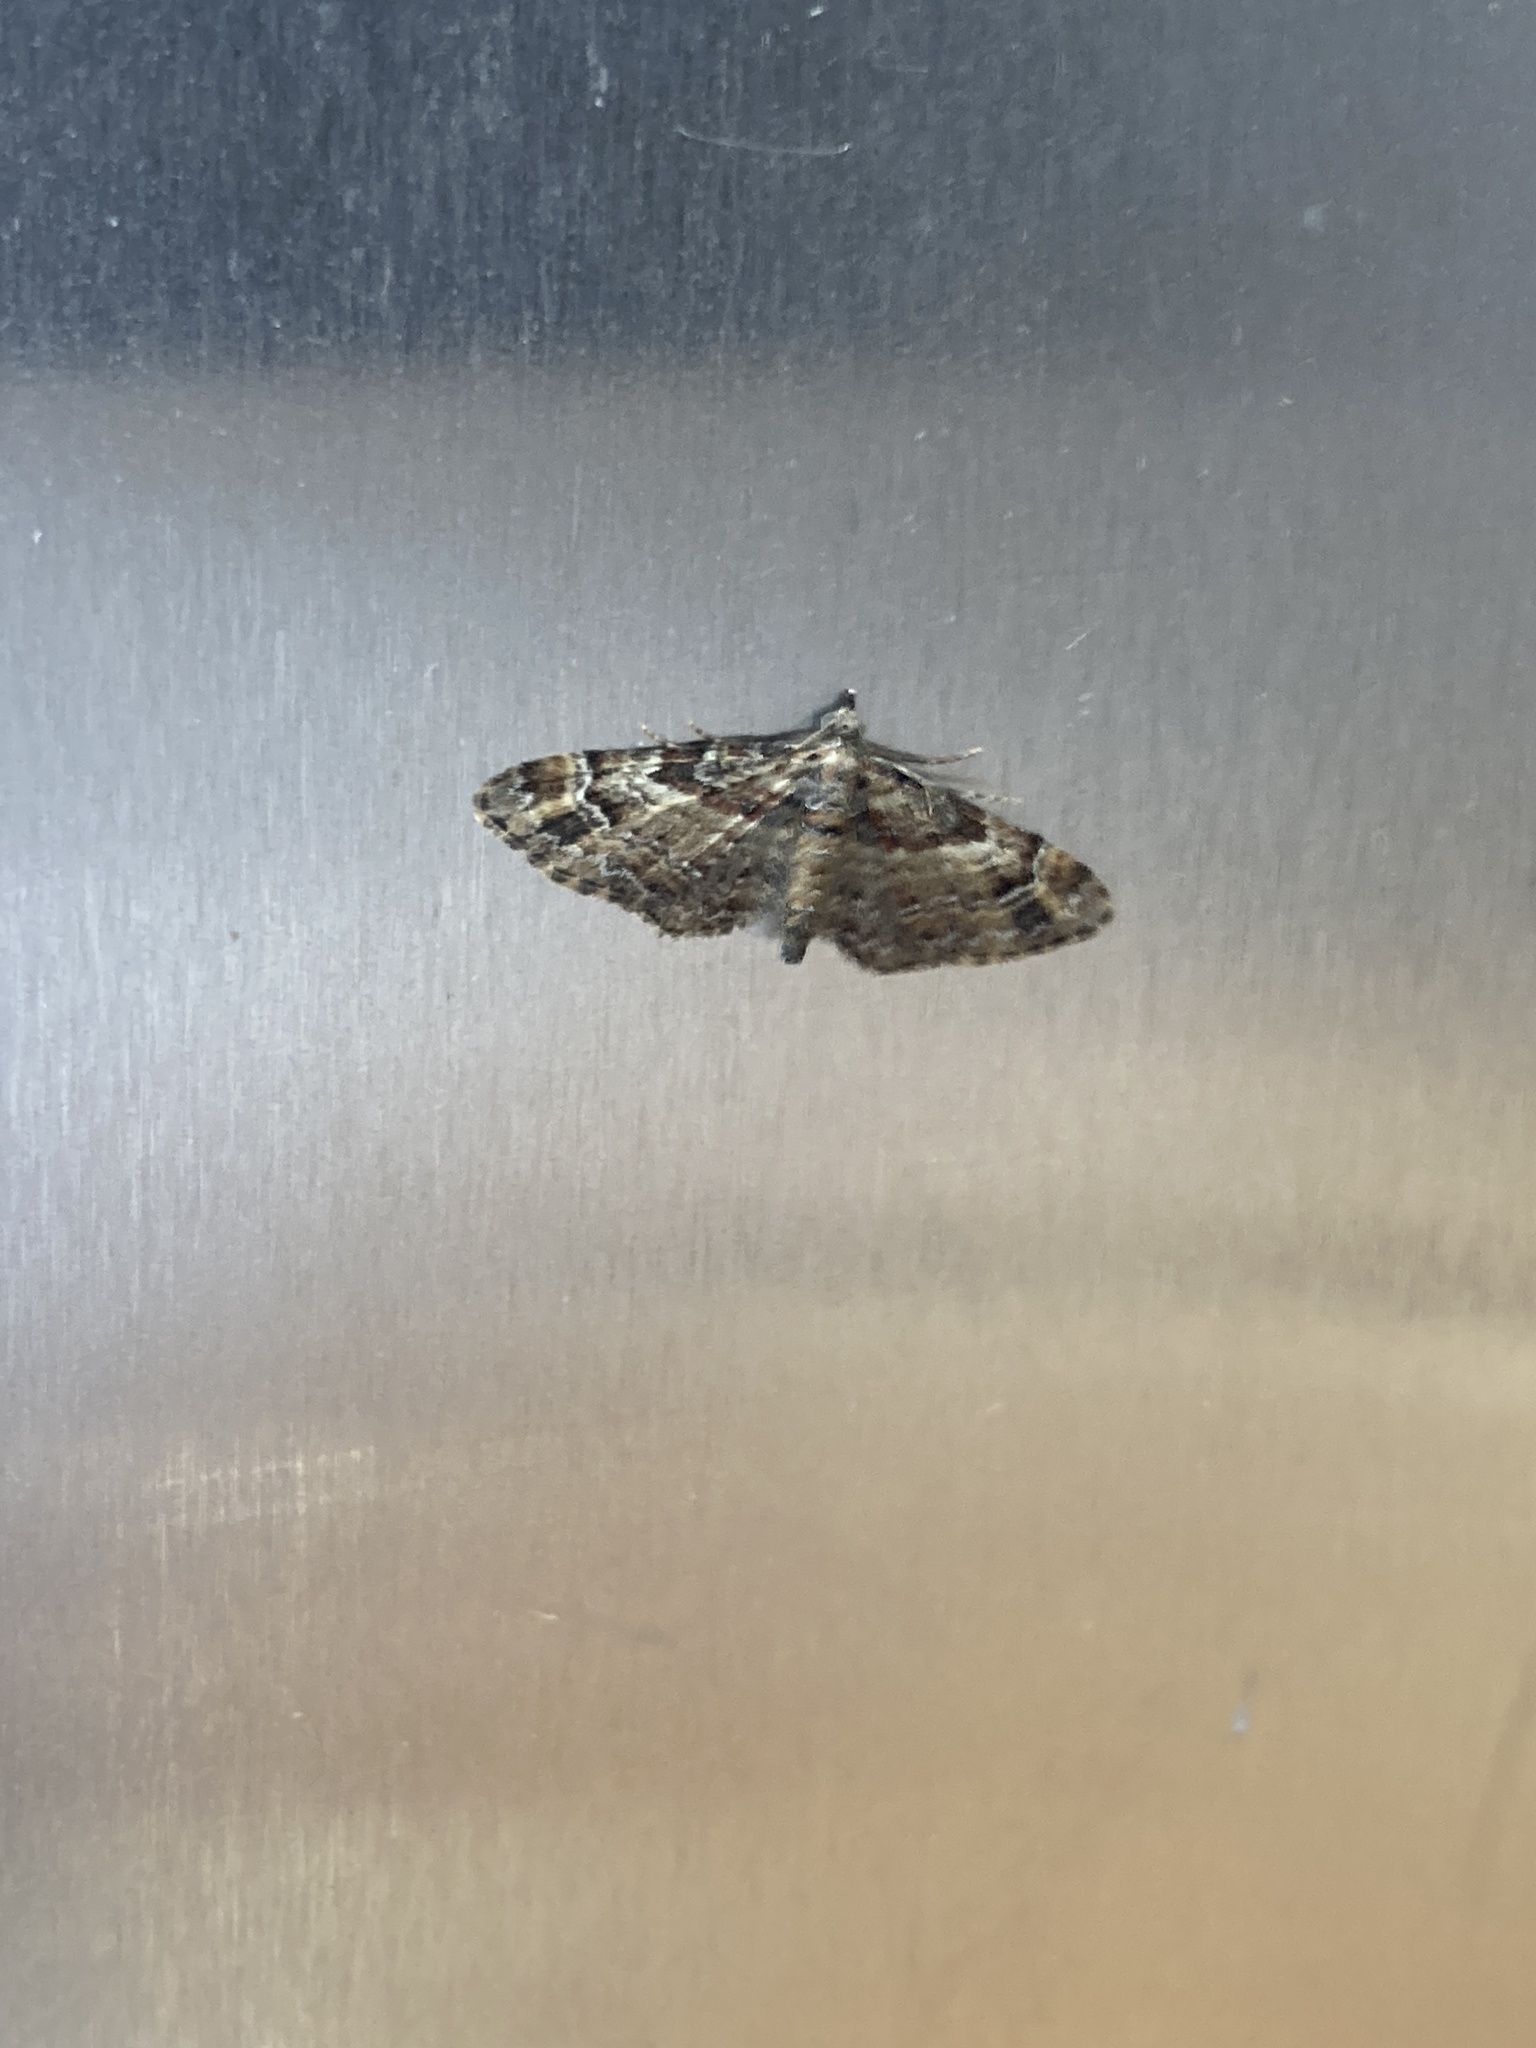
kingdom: Animalia
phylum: Arthropoda
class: Insecta
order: Lepidoptera
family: Geometridae
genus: Gymnoscelis
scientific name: Gymnoscelis rufifasciata
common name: Double-striped pug
